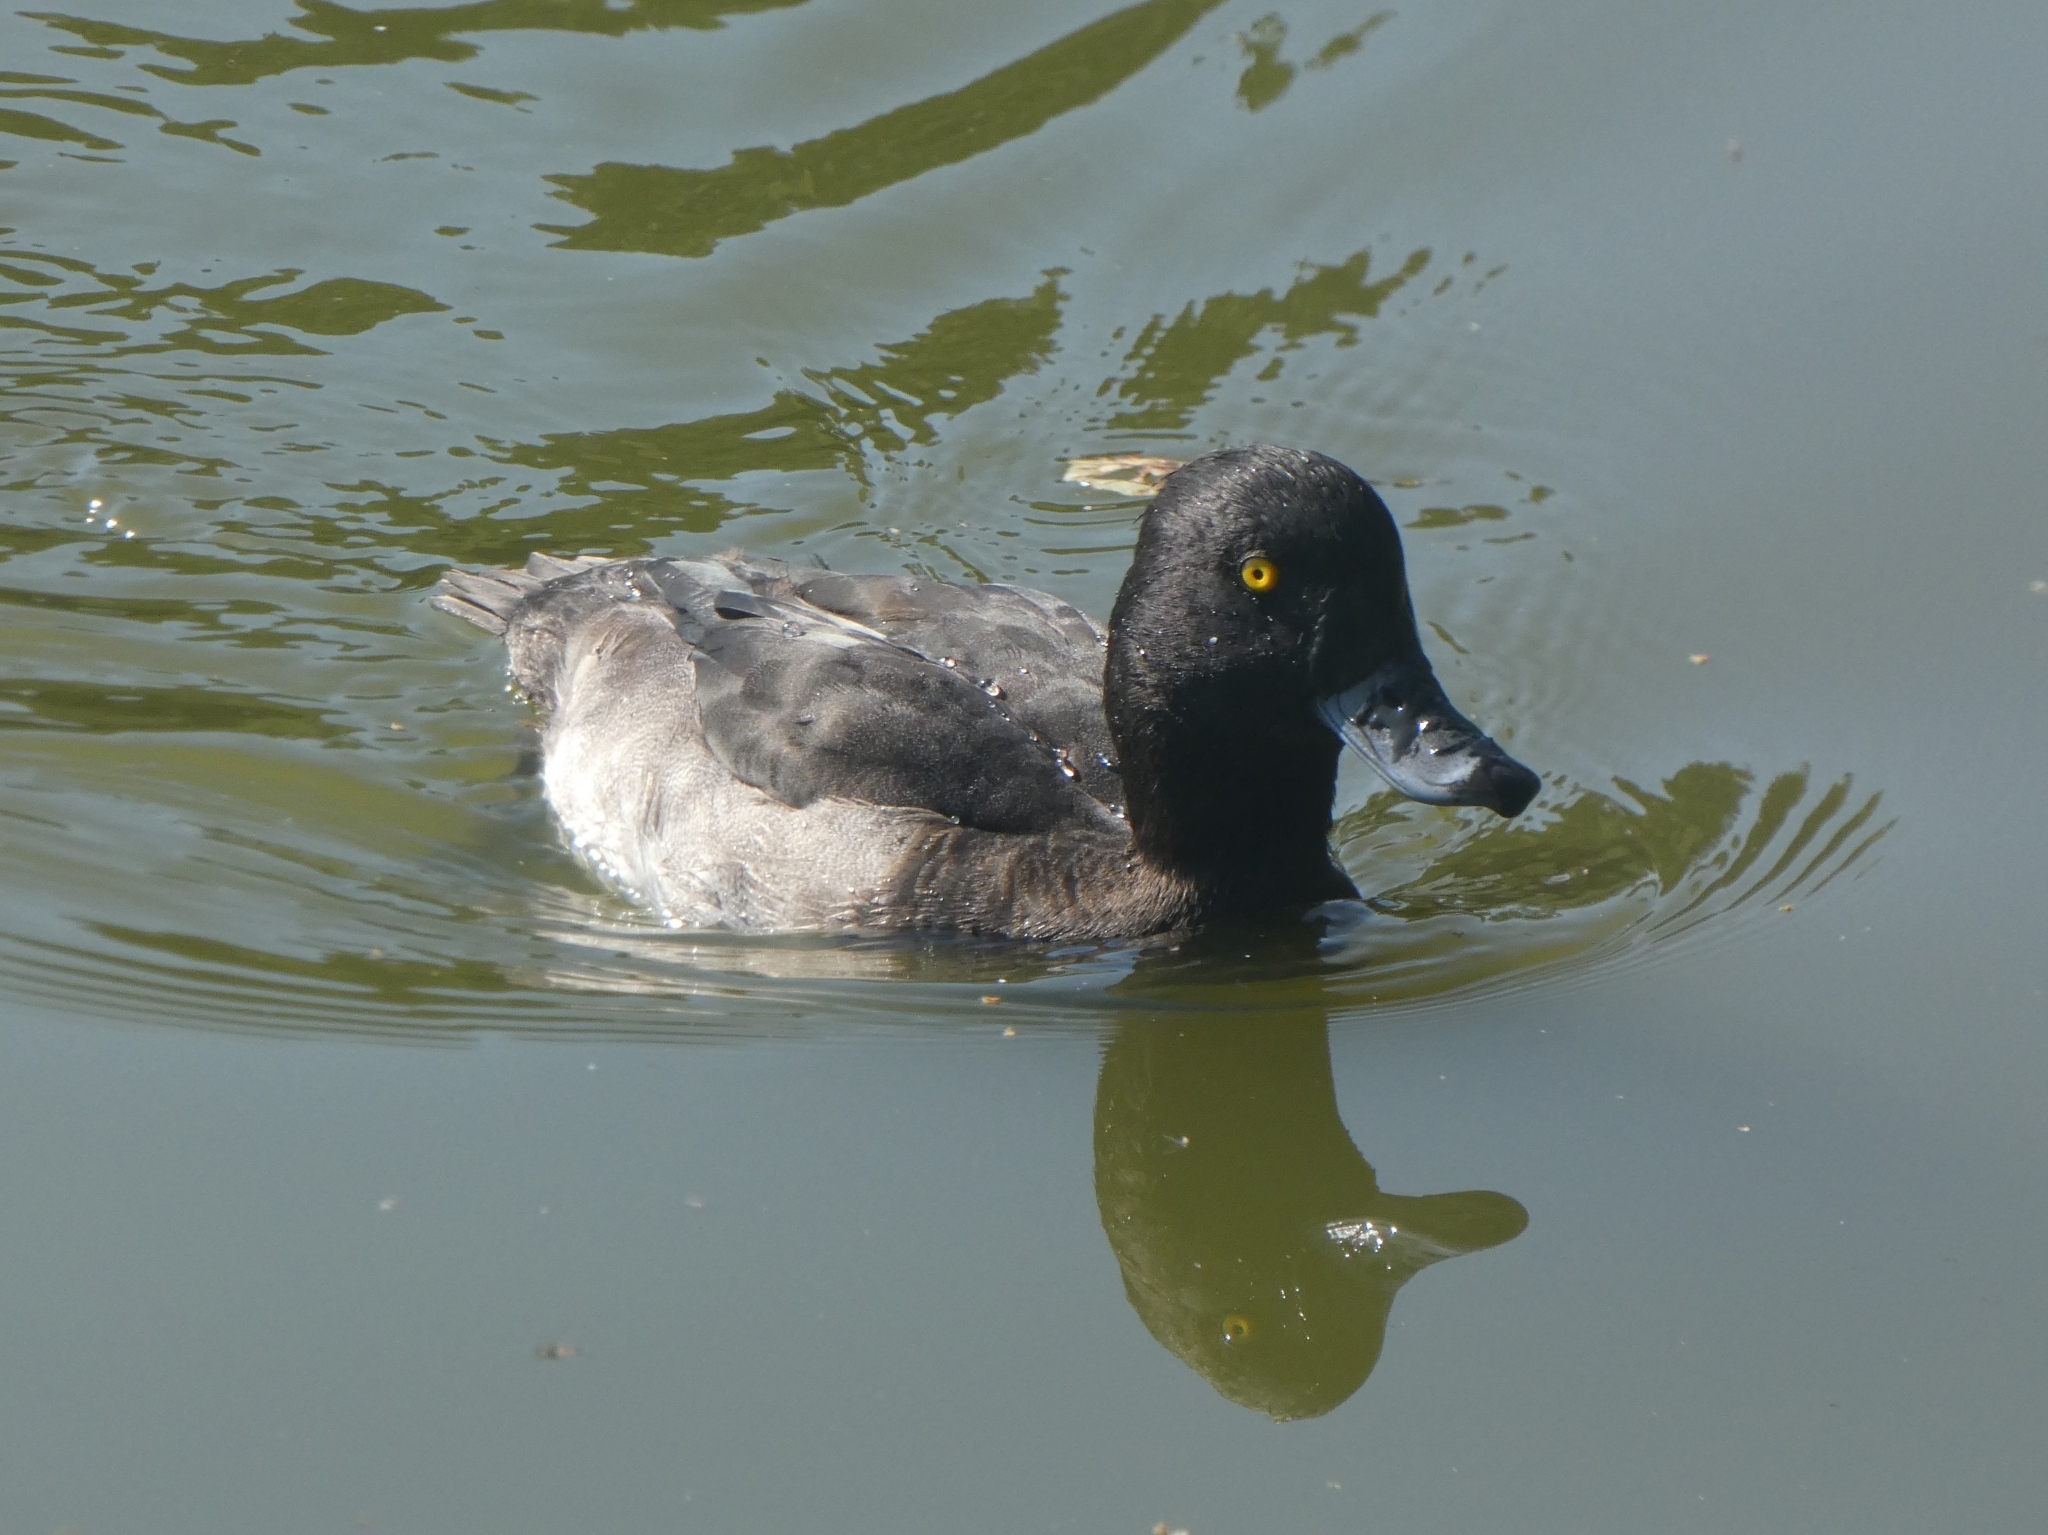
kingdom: Animalia
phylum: Chordata
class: Aves
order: Anseriformes
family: Anatidae
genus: Aythya
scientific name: Aythya fuligula
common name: Tufted duck
